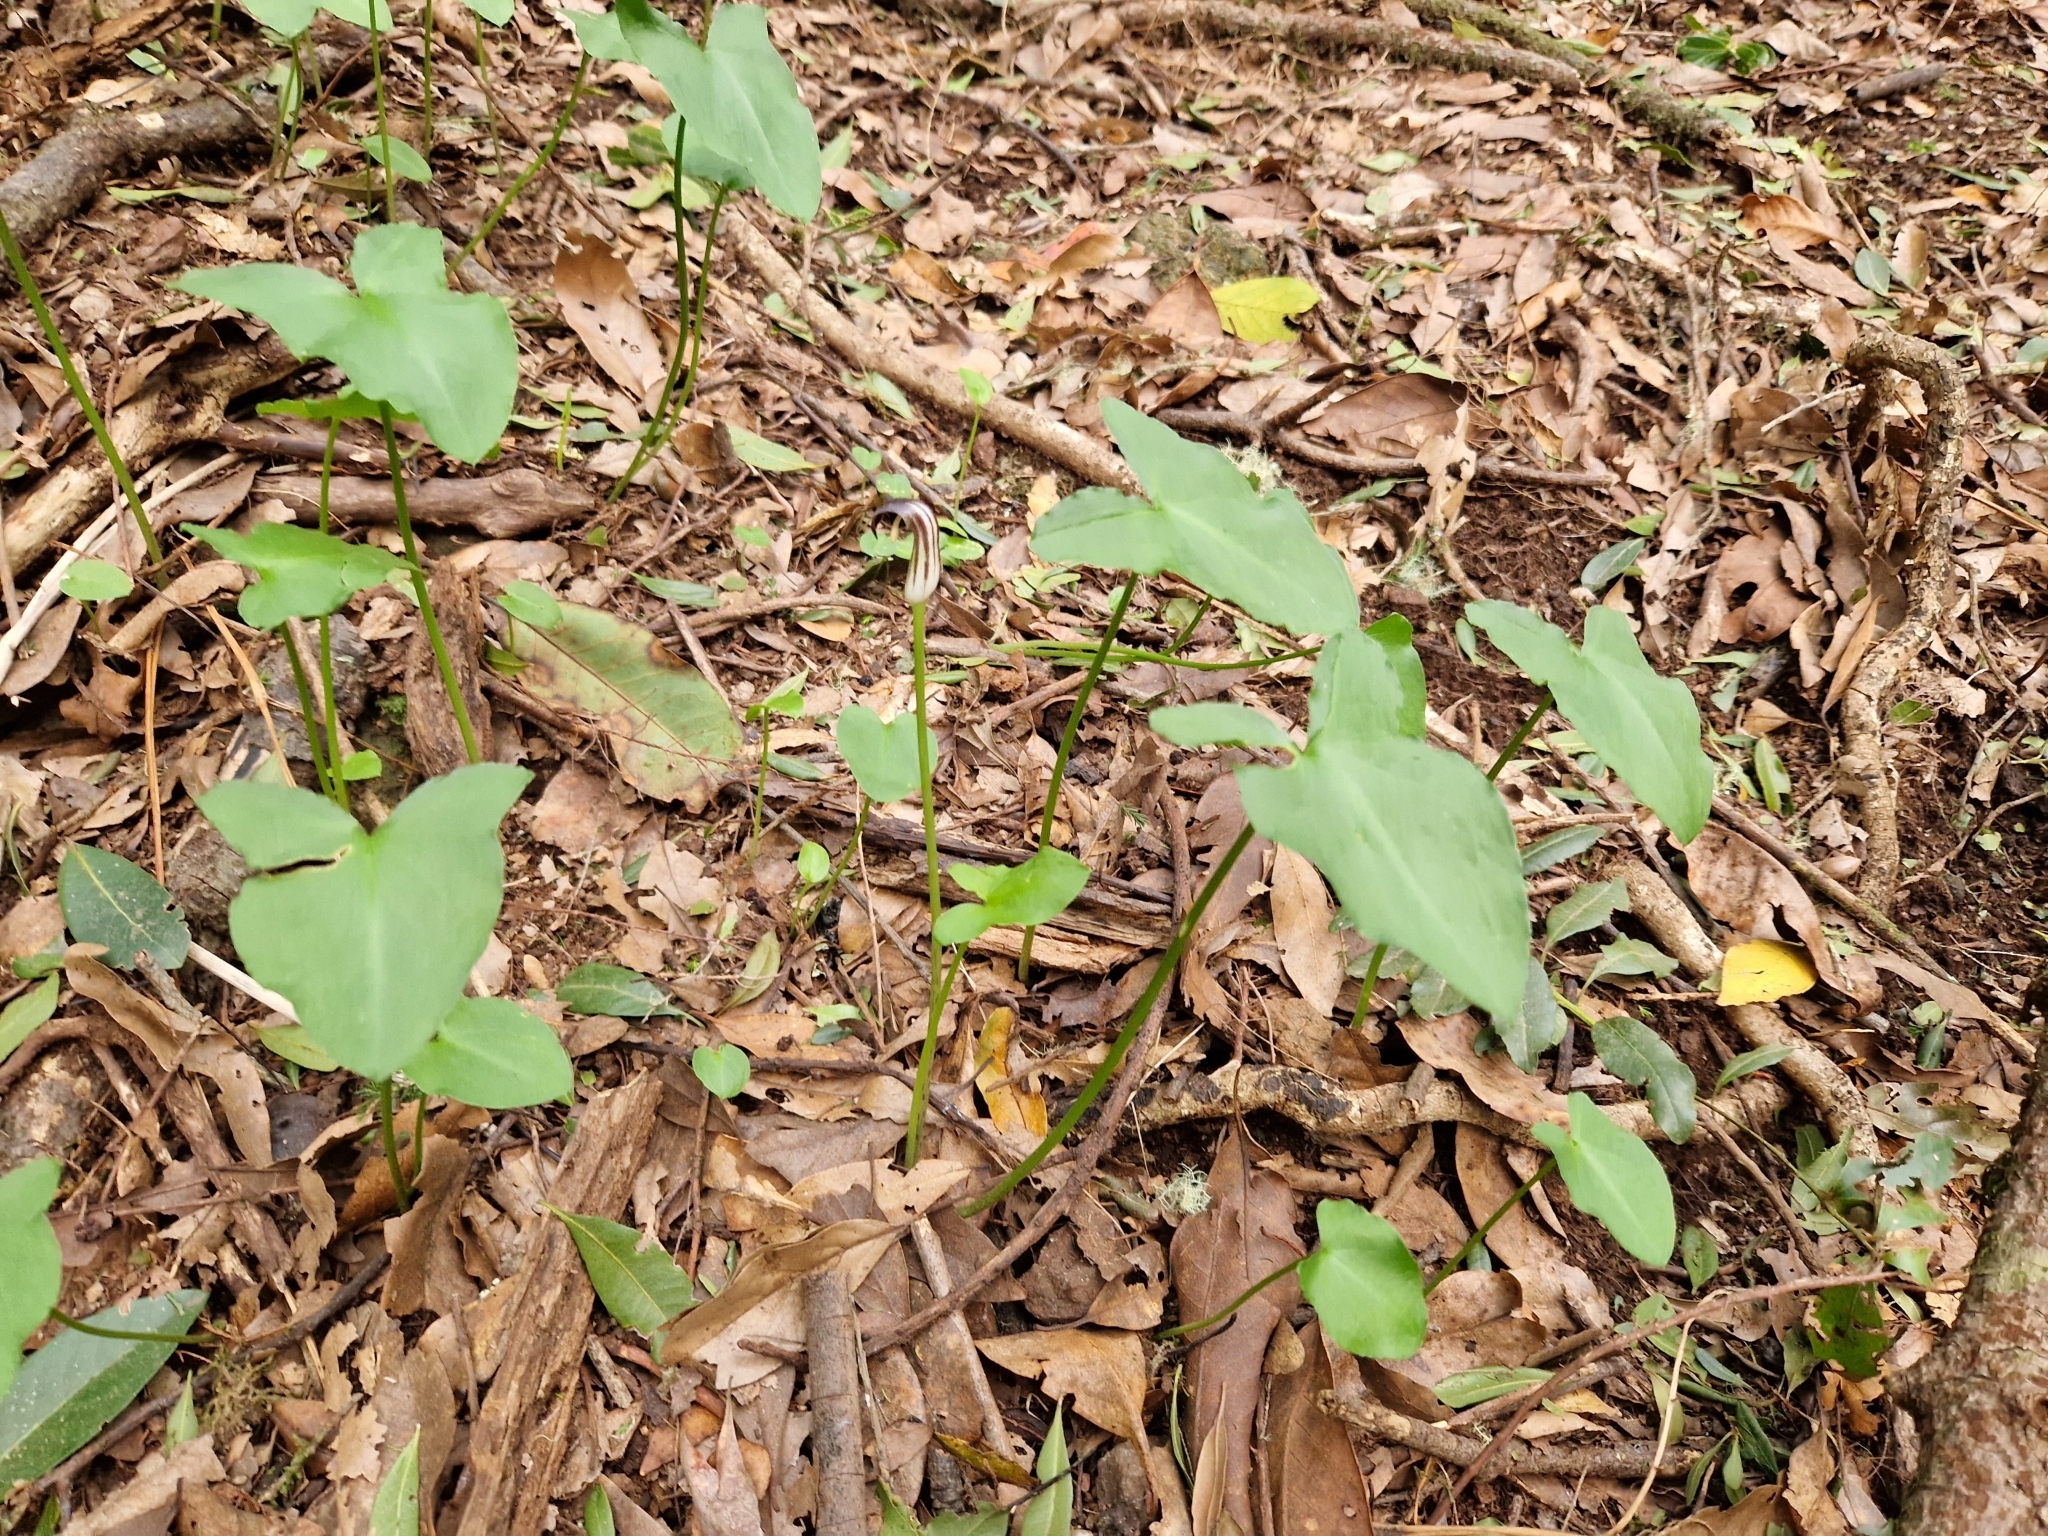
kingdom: Plantae
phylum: Tracheophyta
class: Liliopsida
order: Alismatales
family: Araceae
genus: Arisarum
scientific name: Arisarum simorrhinum
